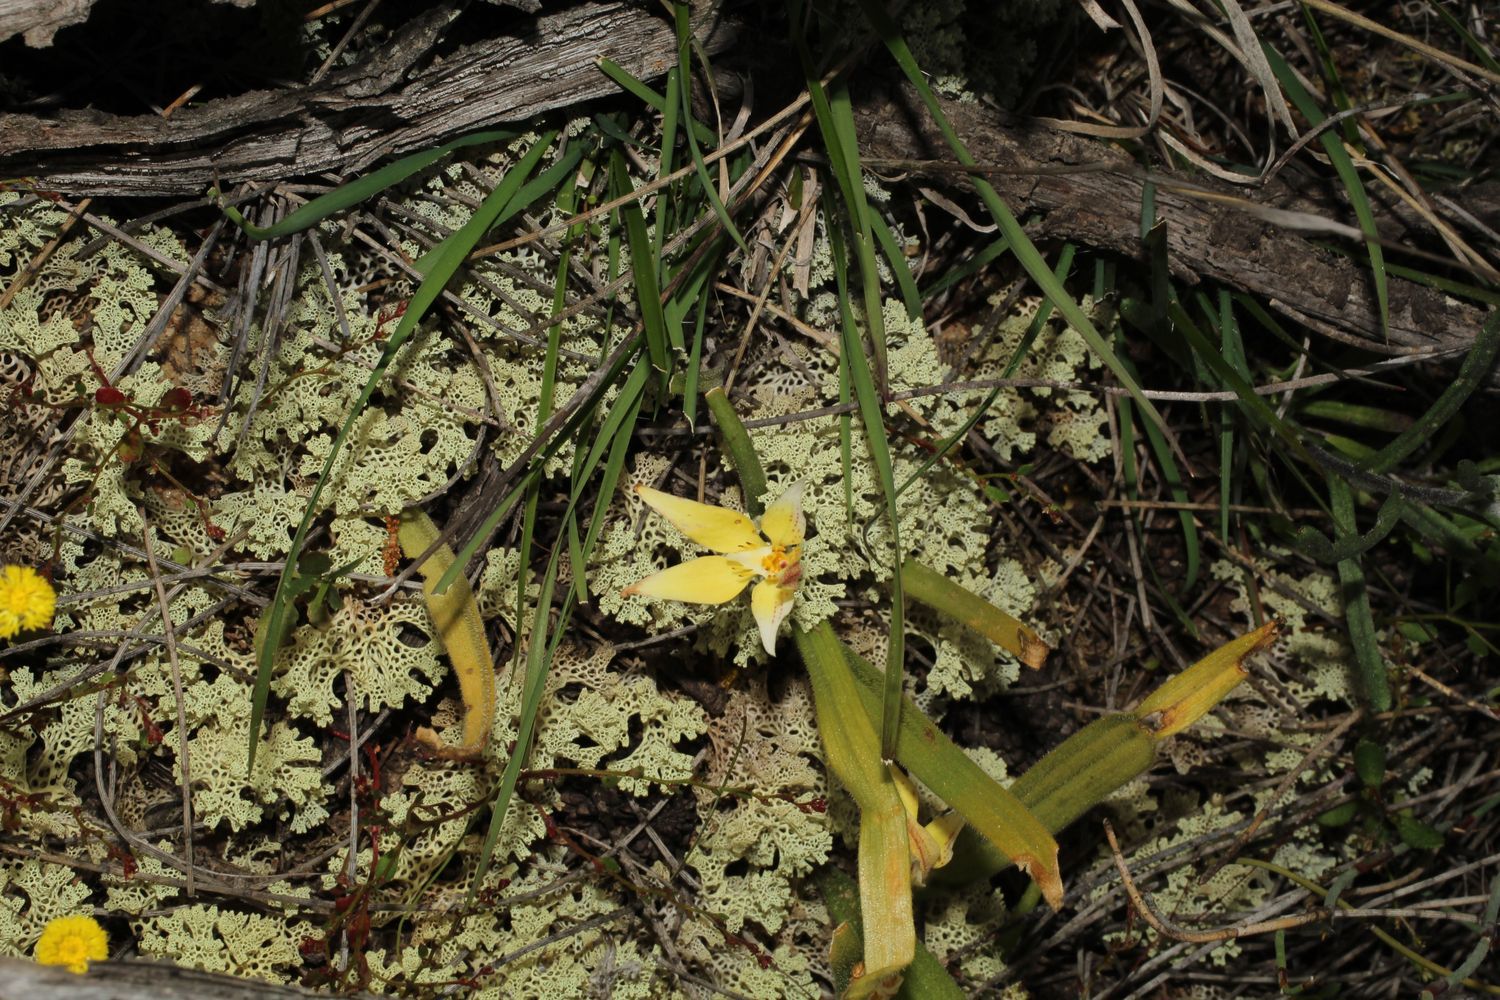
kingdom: Plantae
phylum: Tracheophyta
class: Liliopsida
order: Asparagales
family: Orchidaceae
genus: Caladenia
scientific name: Caladenia flava
